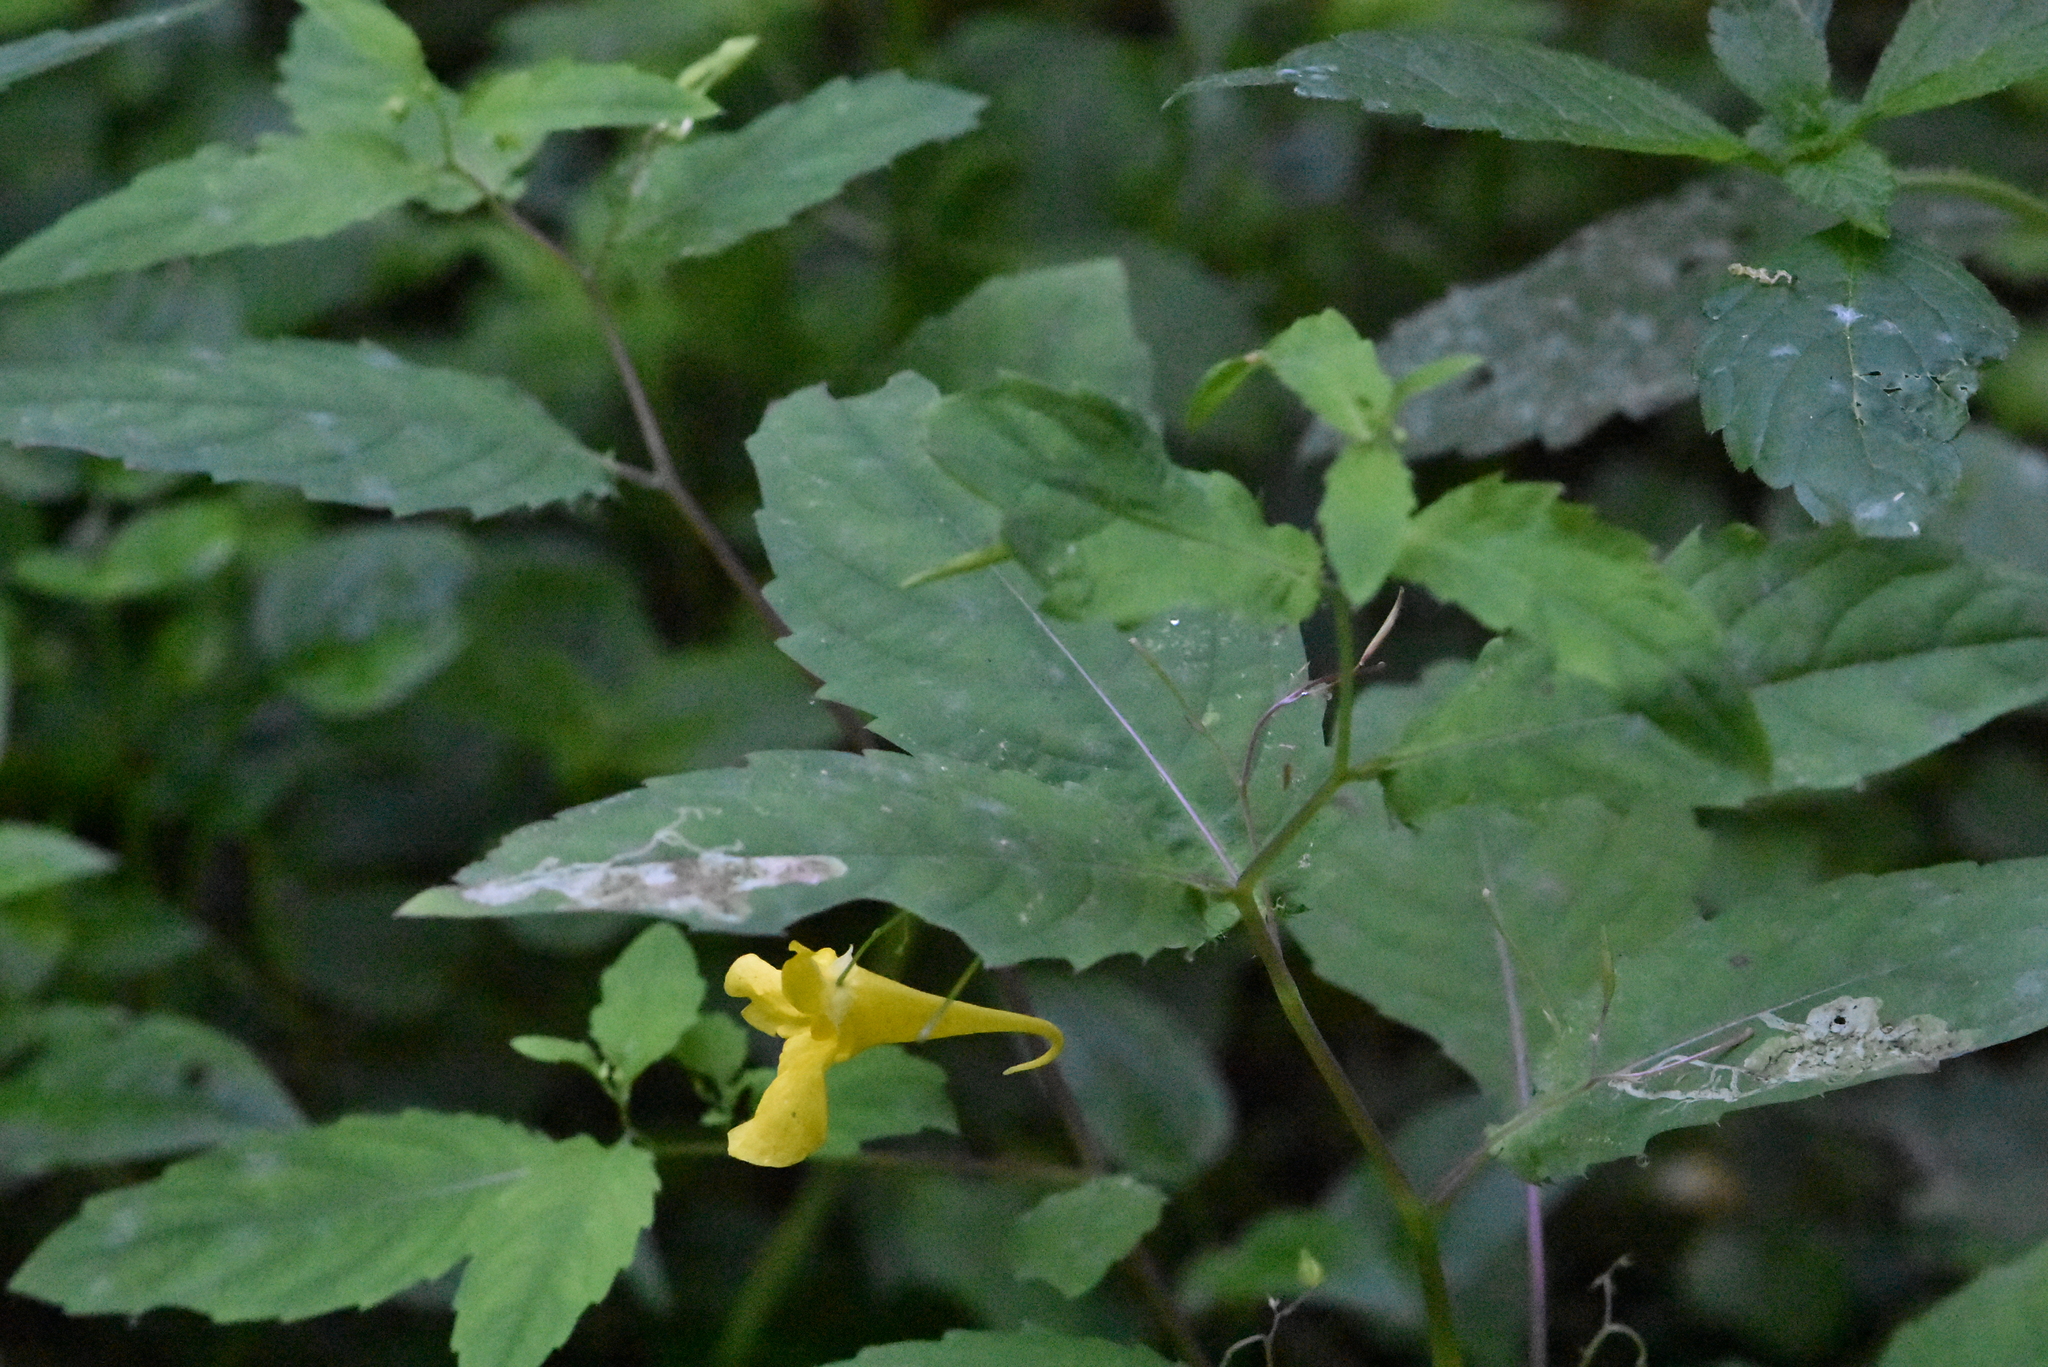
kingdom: Plantae
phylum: Tracheophyta
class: Magnoliopsida
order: Ericales
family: Balsaminaceae
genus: Impatiens
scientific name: Impatiens noli-tangere
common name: Touch-me-not balsam
